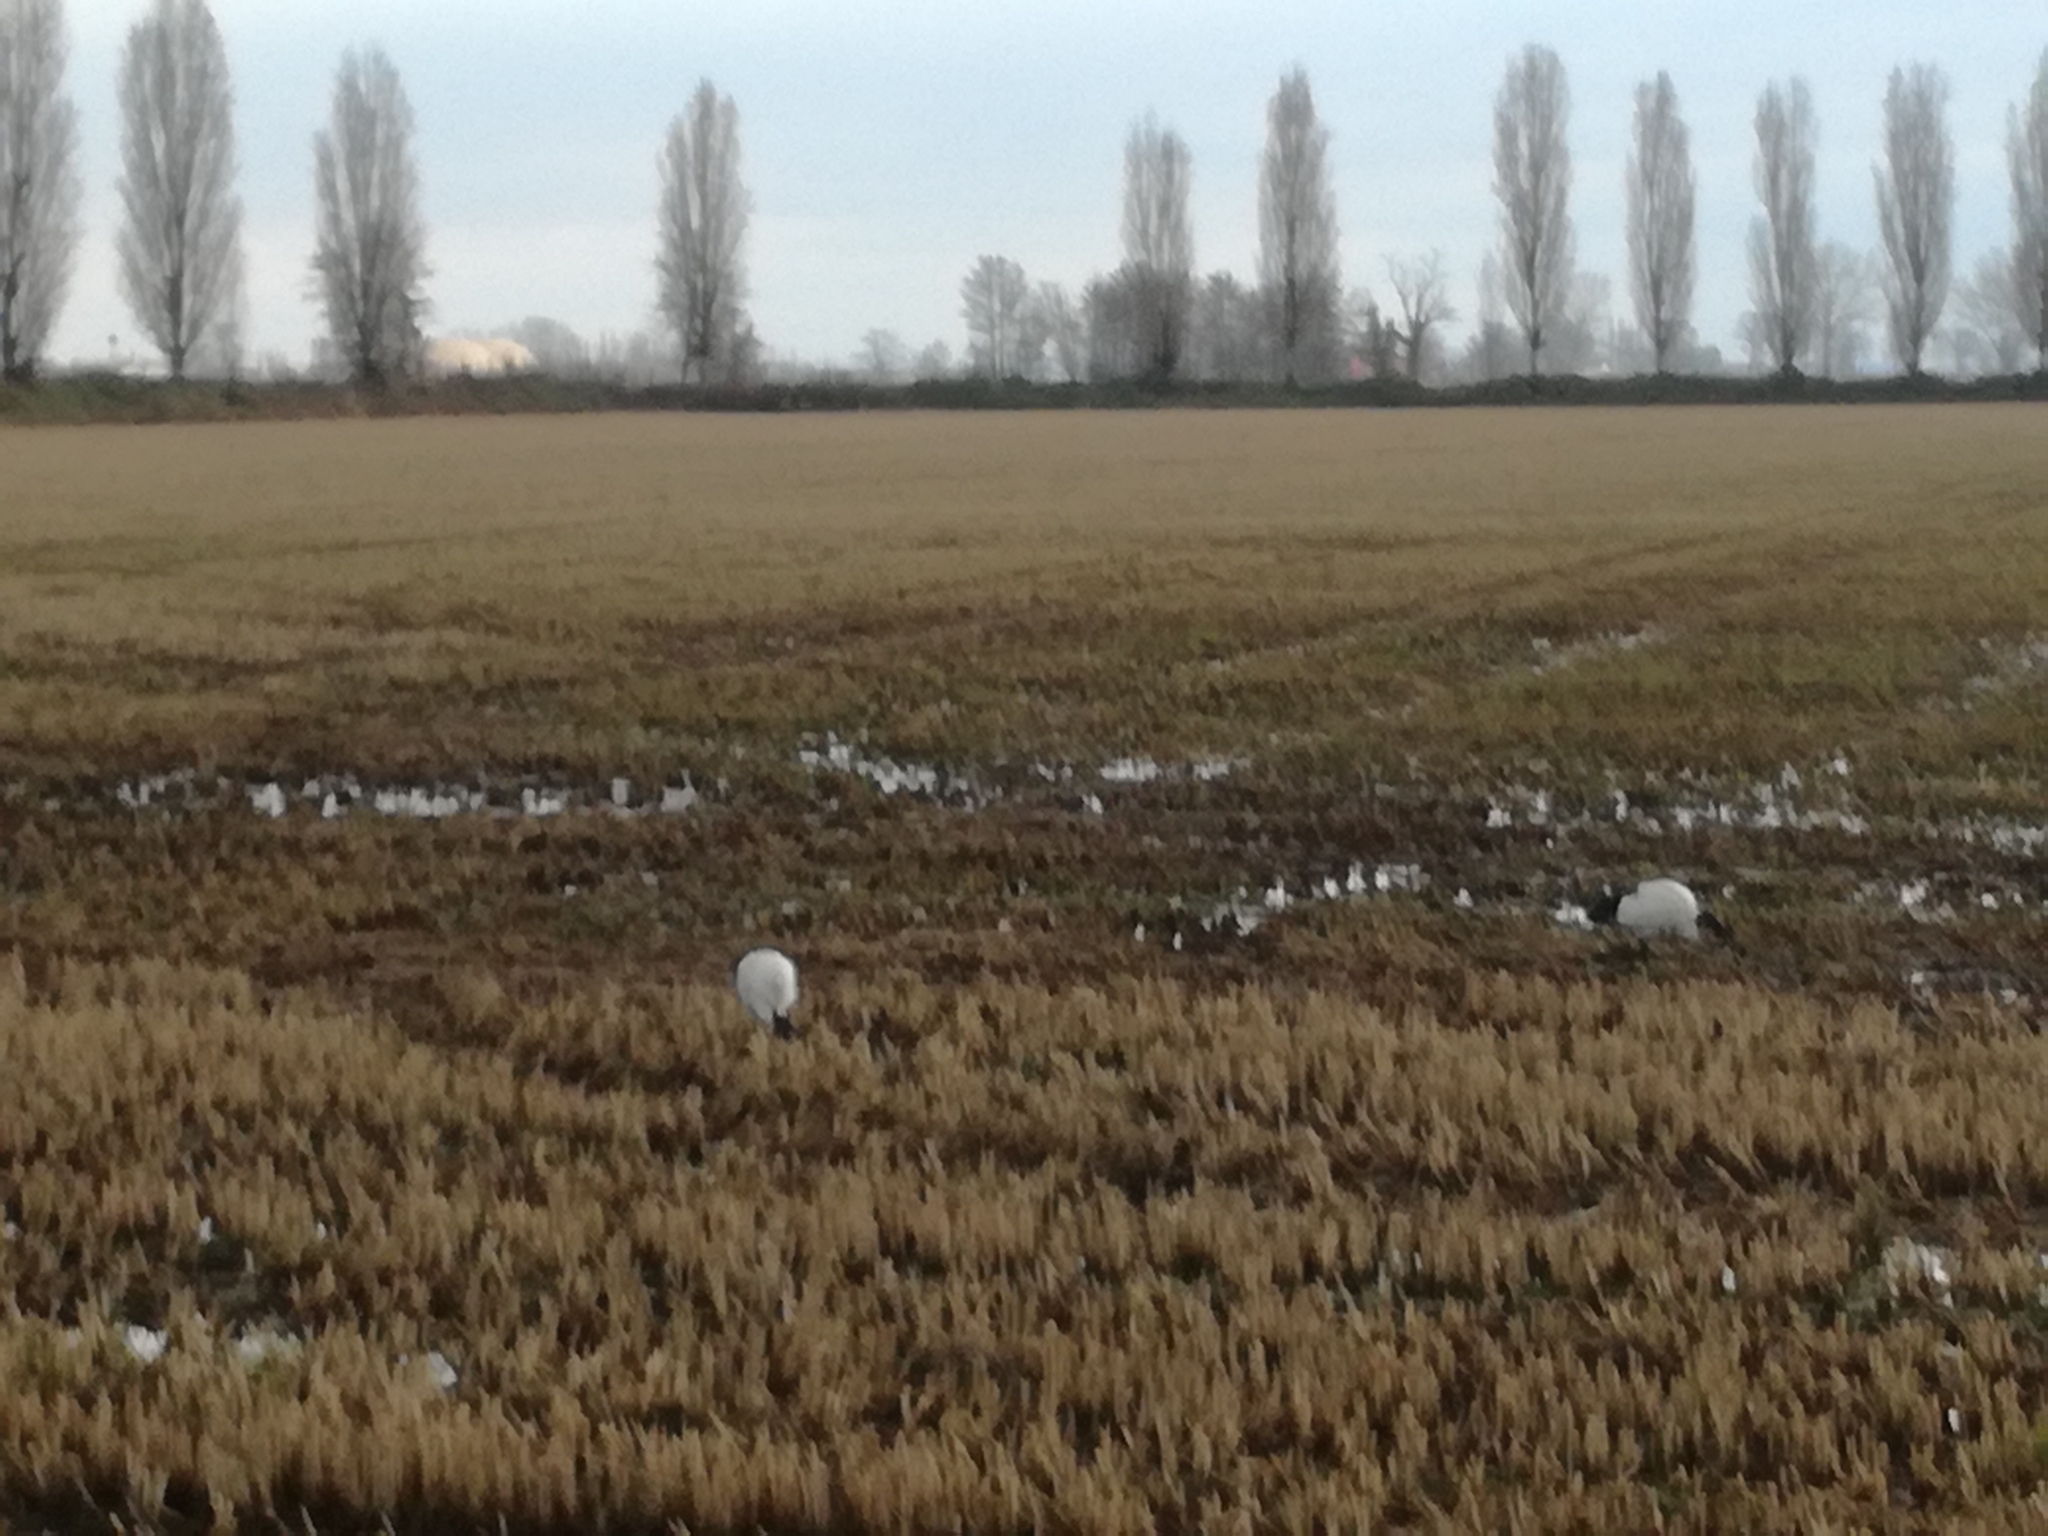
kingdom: Animalia
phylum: Chordata
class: Aves
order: Pelecaniformes
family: Threskiornithidae
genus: Threskiornis
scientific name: Threskiornis aethiopicus
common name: Sacred ibis
